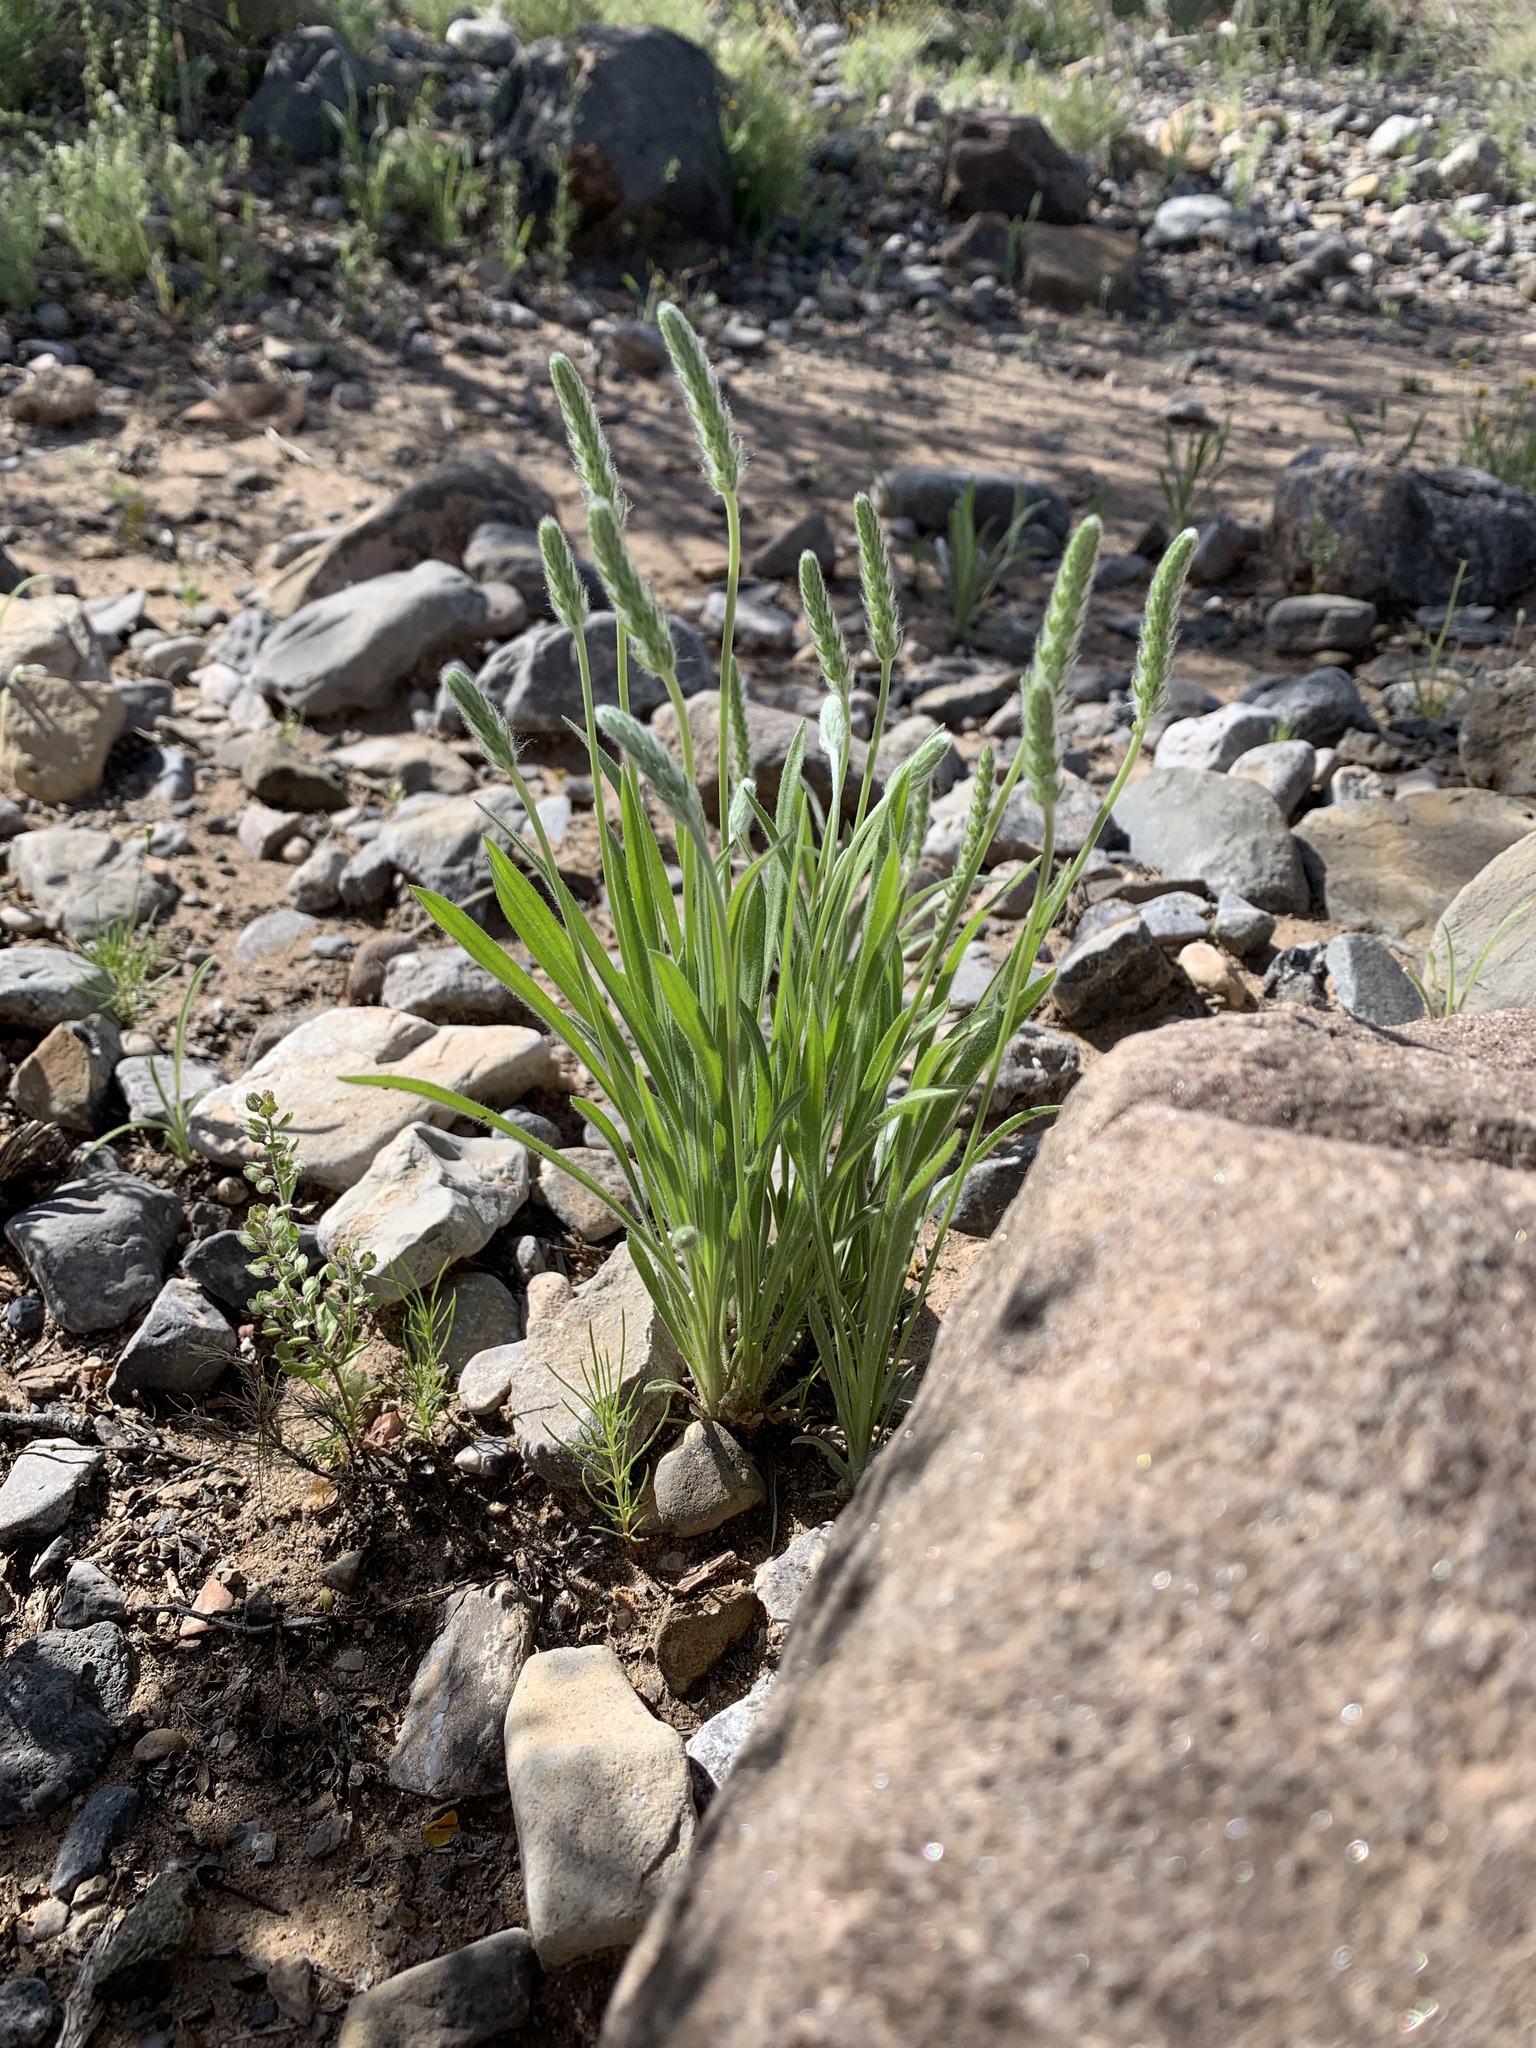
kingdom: Plantae
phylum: Tracheophyta
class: Magnoliopsida
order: Lamiales
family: Plantaginaceae
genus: Plantago
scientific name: Plantago patagonica
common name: Patagonia indian-wheat
